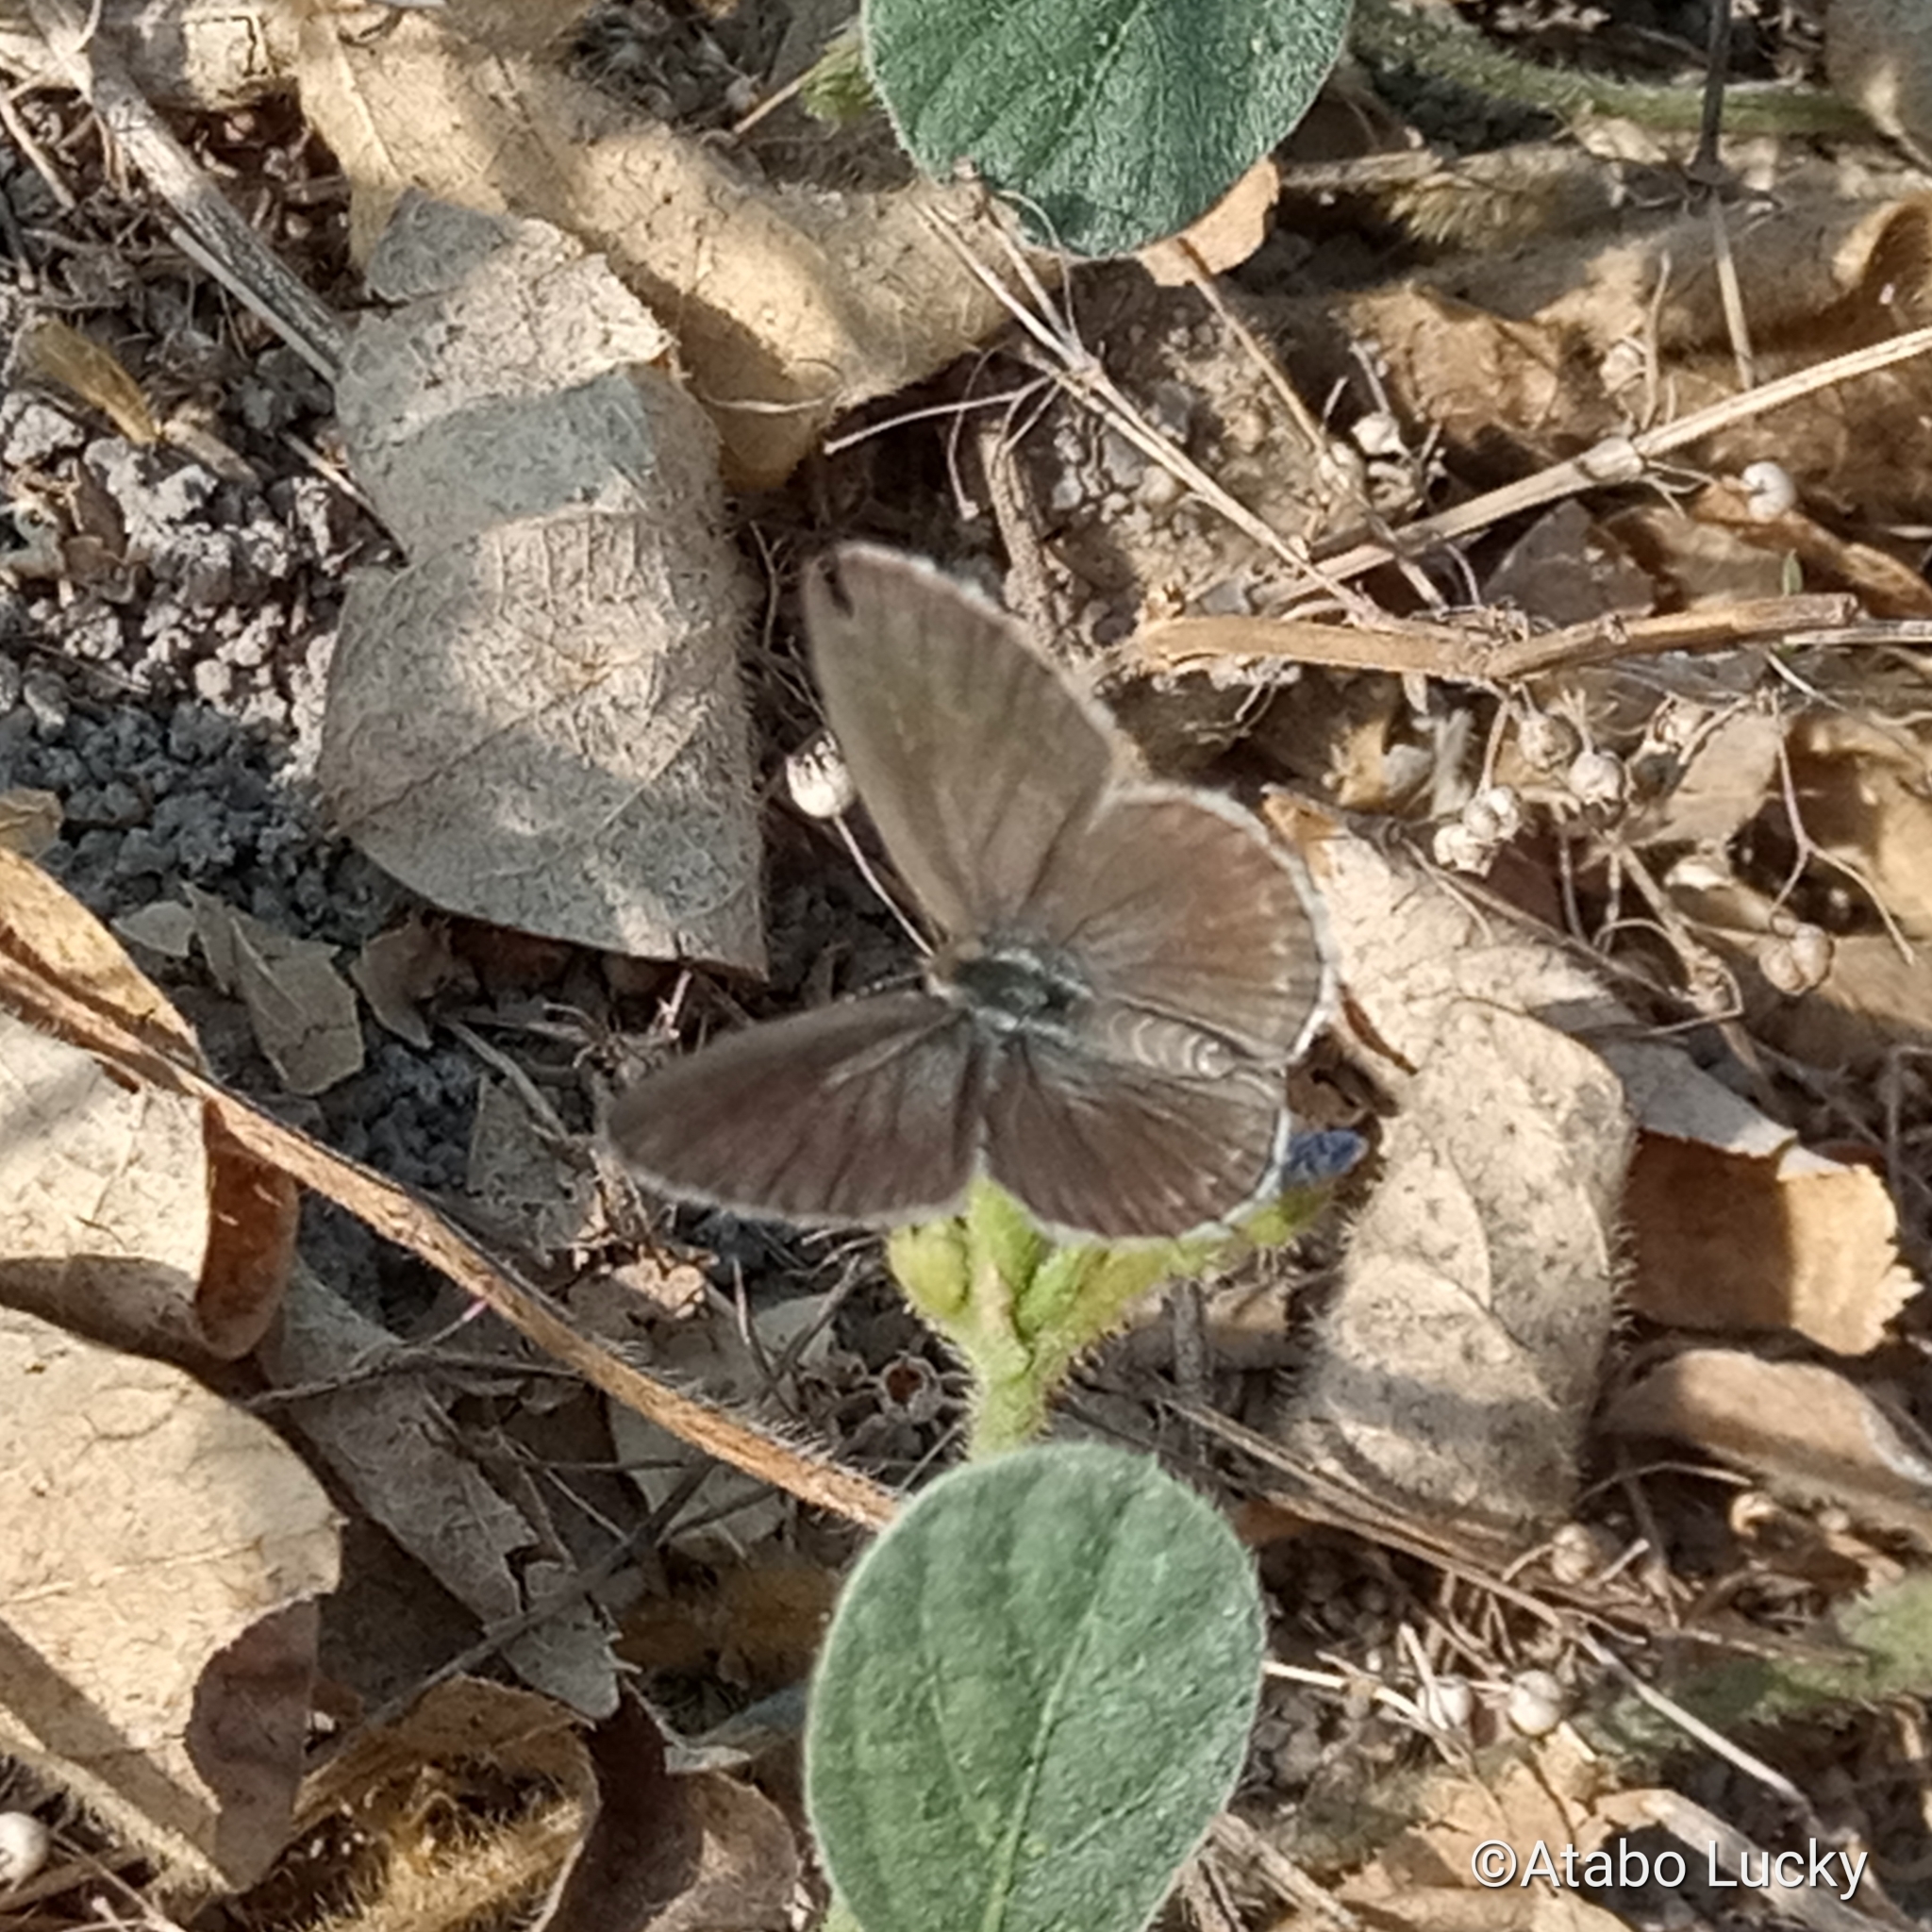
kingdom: Animalia
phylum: Arthropoda
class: Insecta
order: Lepidoptera
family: Lycaenidae
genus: Zizina
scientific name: Zizina antanossa
